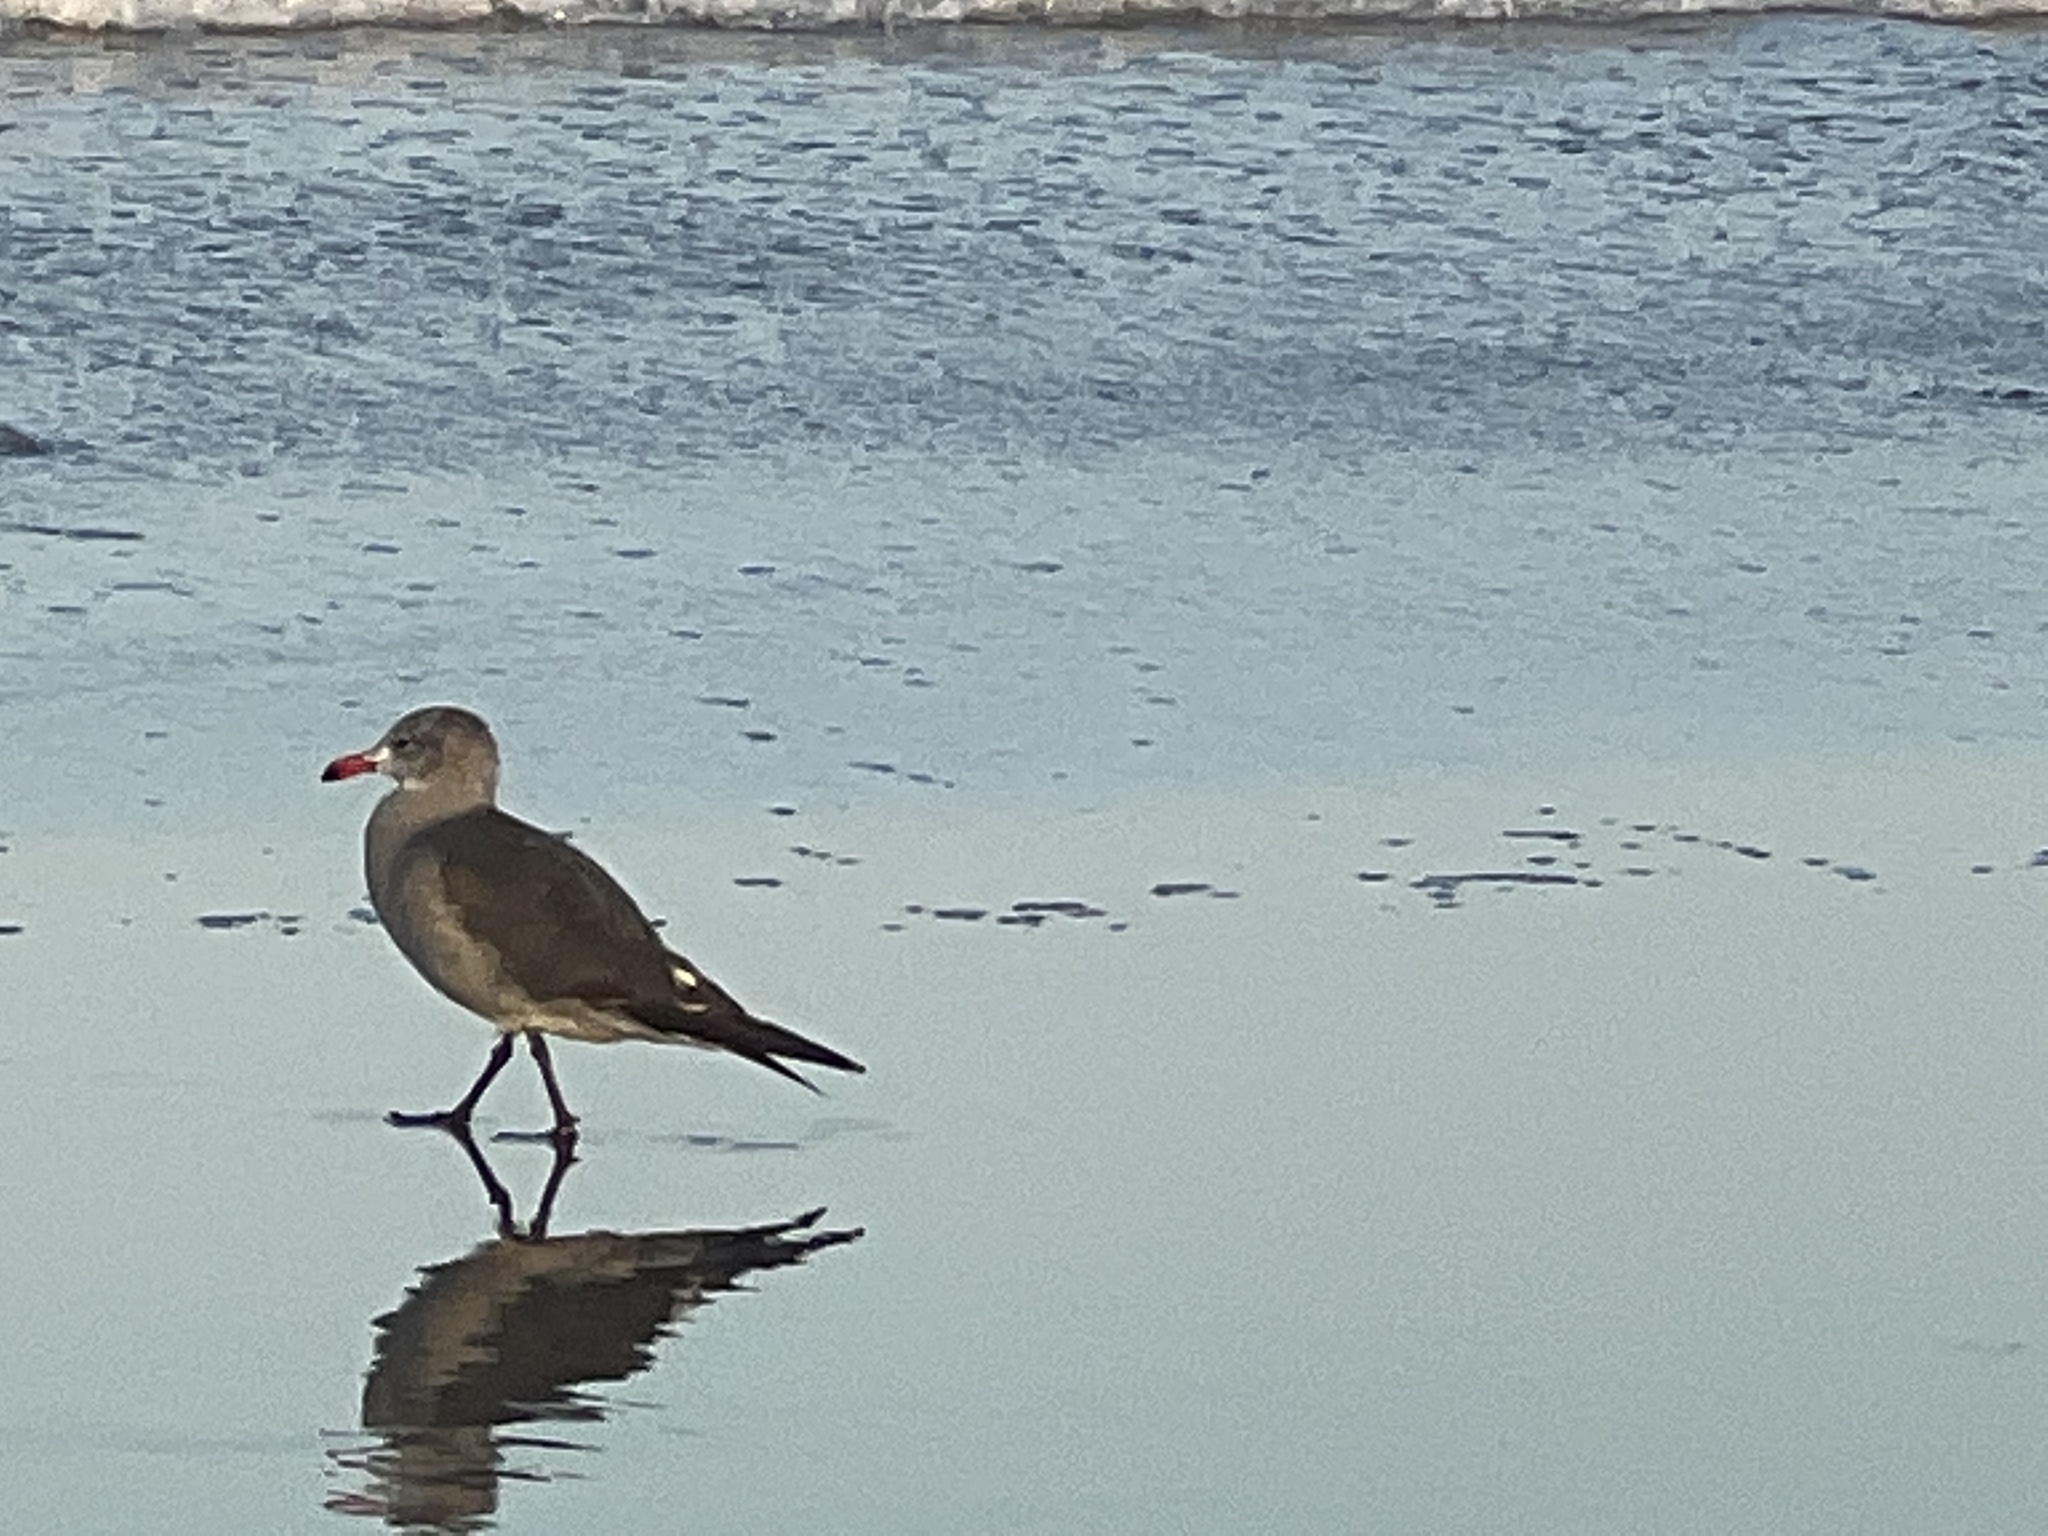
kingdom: Animalia
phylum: Chordata
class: Aves
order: Charadriiformes
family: Laridae
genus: Larus
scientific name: Larus heermanni
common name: Heermann's gull
